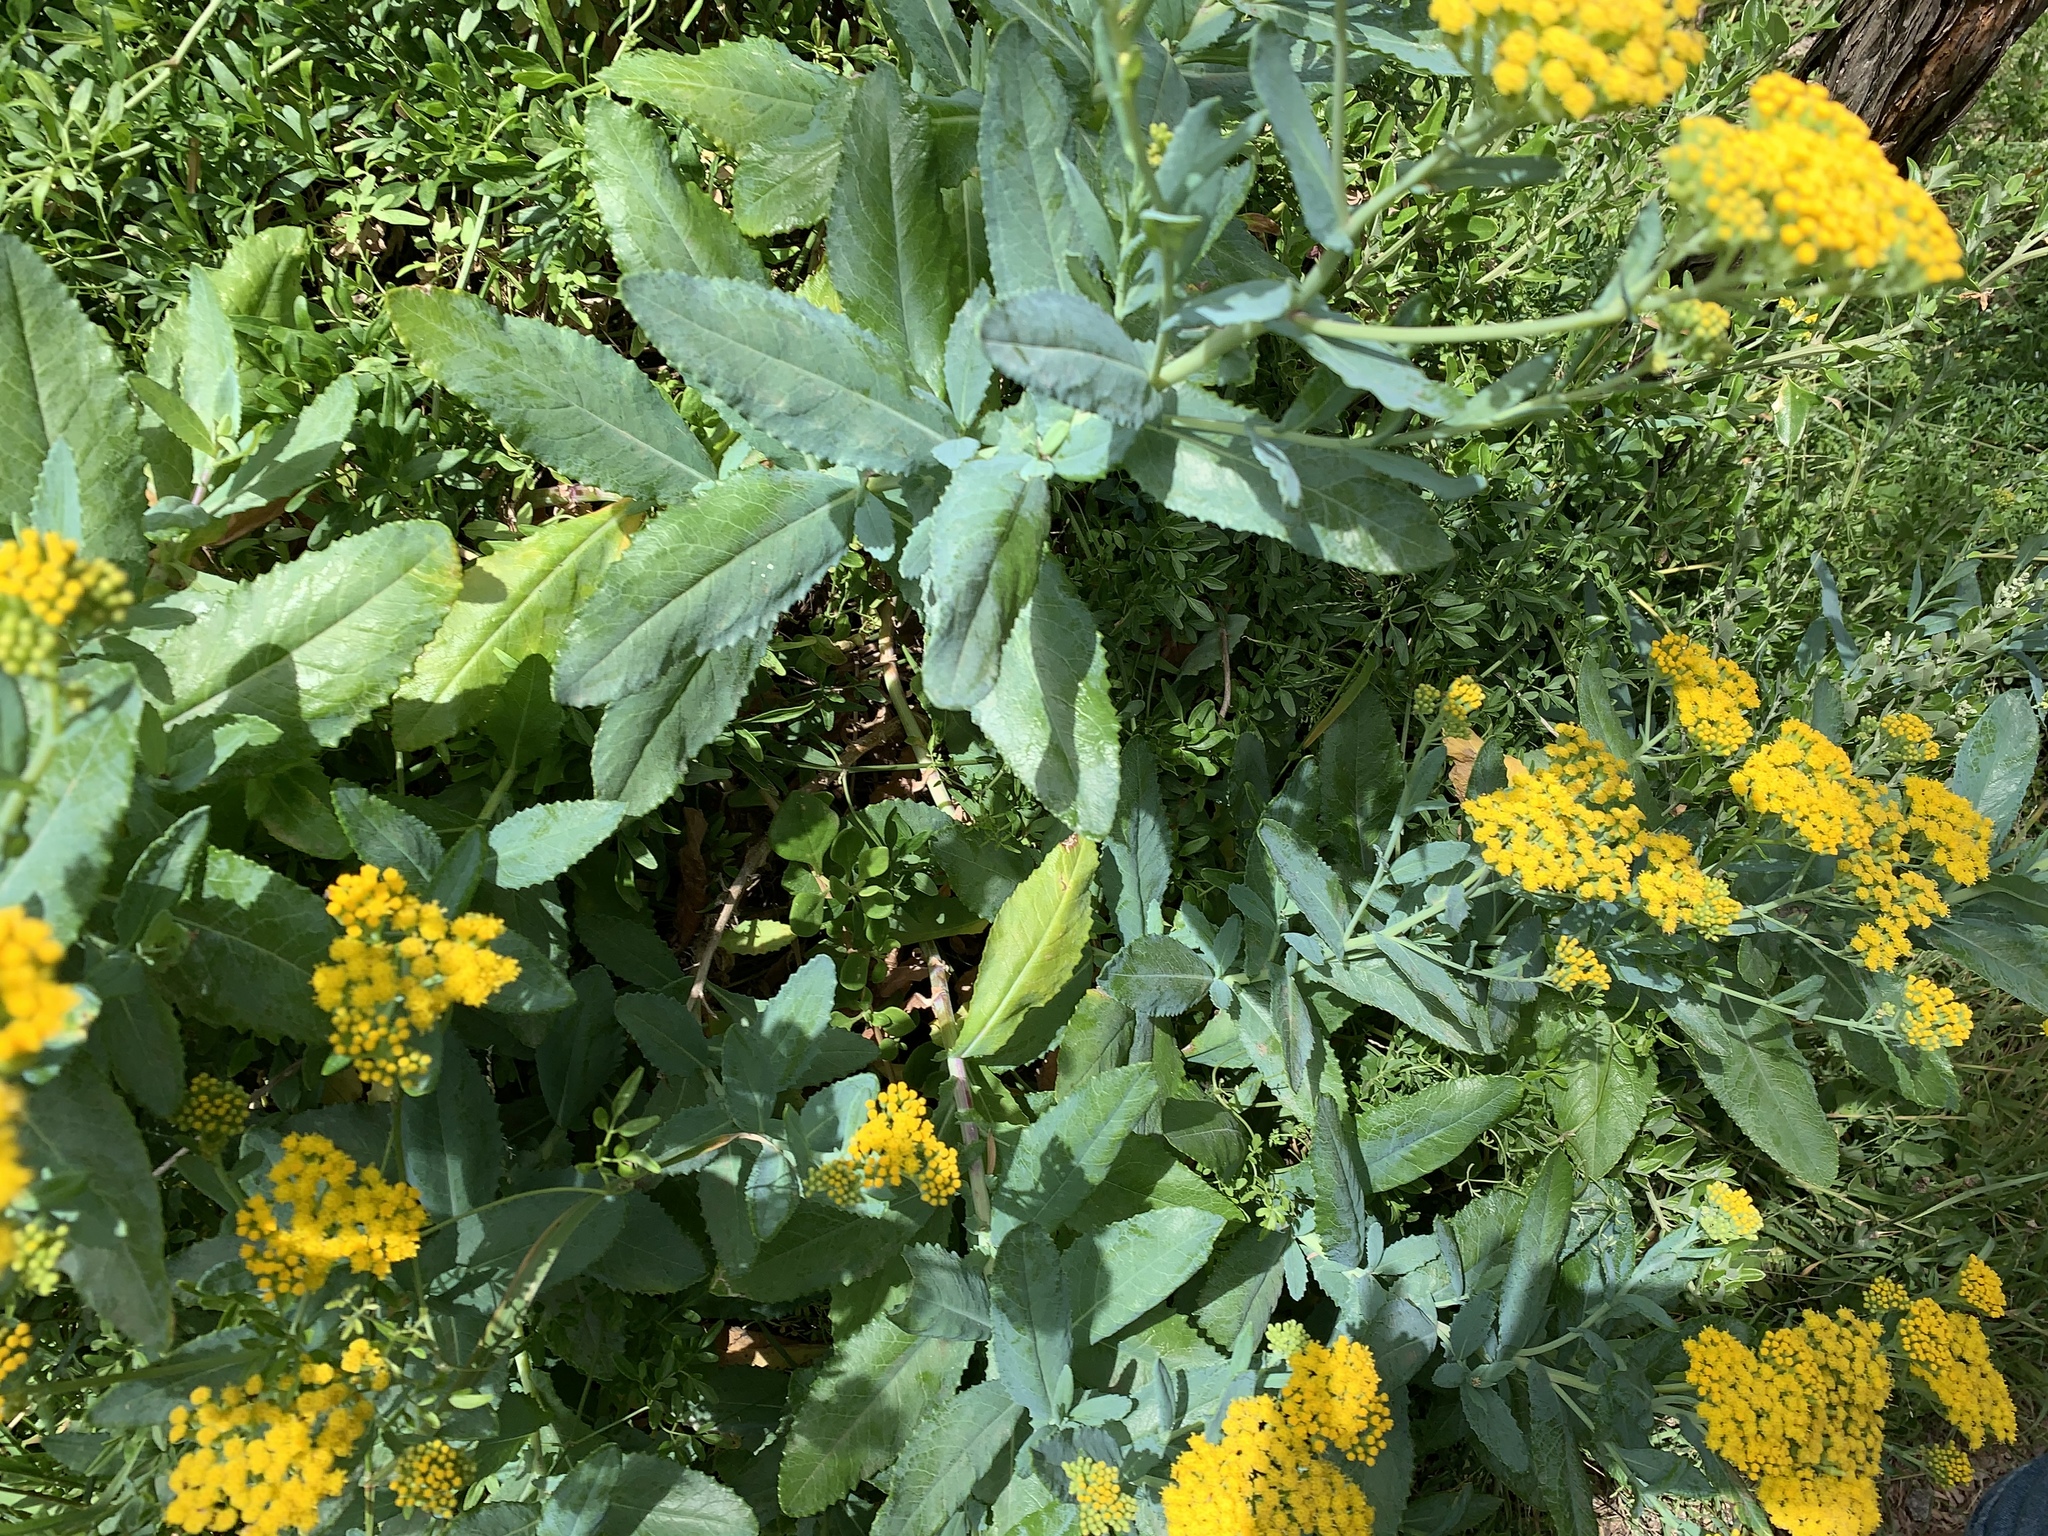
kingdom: Plantae
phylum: Tracheophyta
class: Magnoliopsida
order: Asterales
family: Asteraceae
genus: Senecio
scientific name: Senecio odoratus
